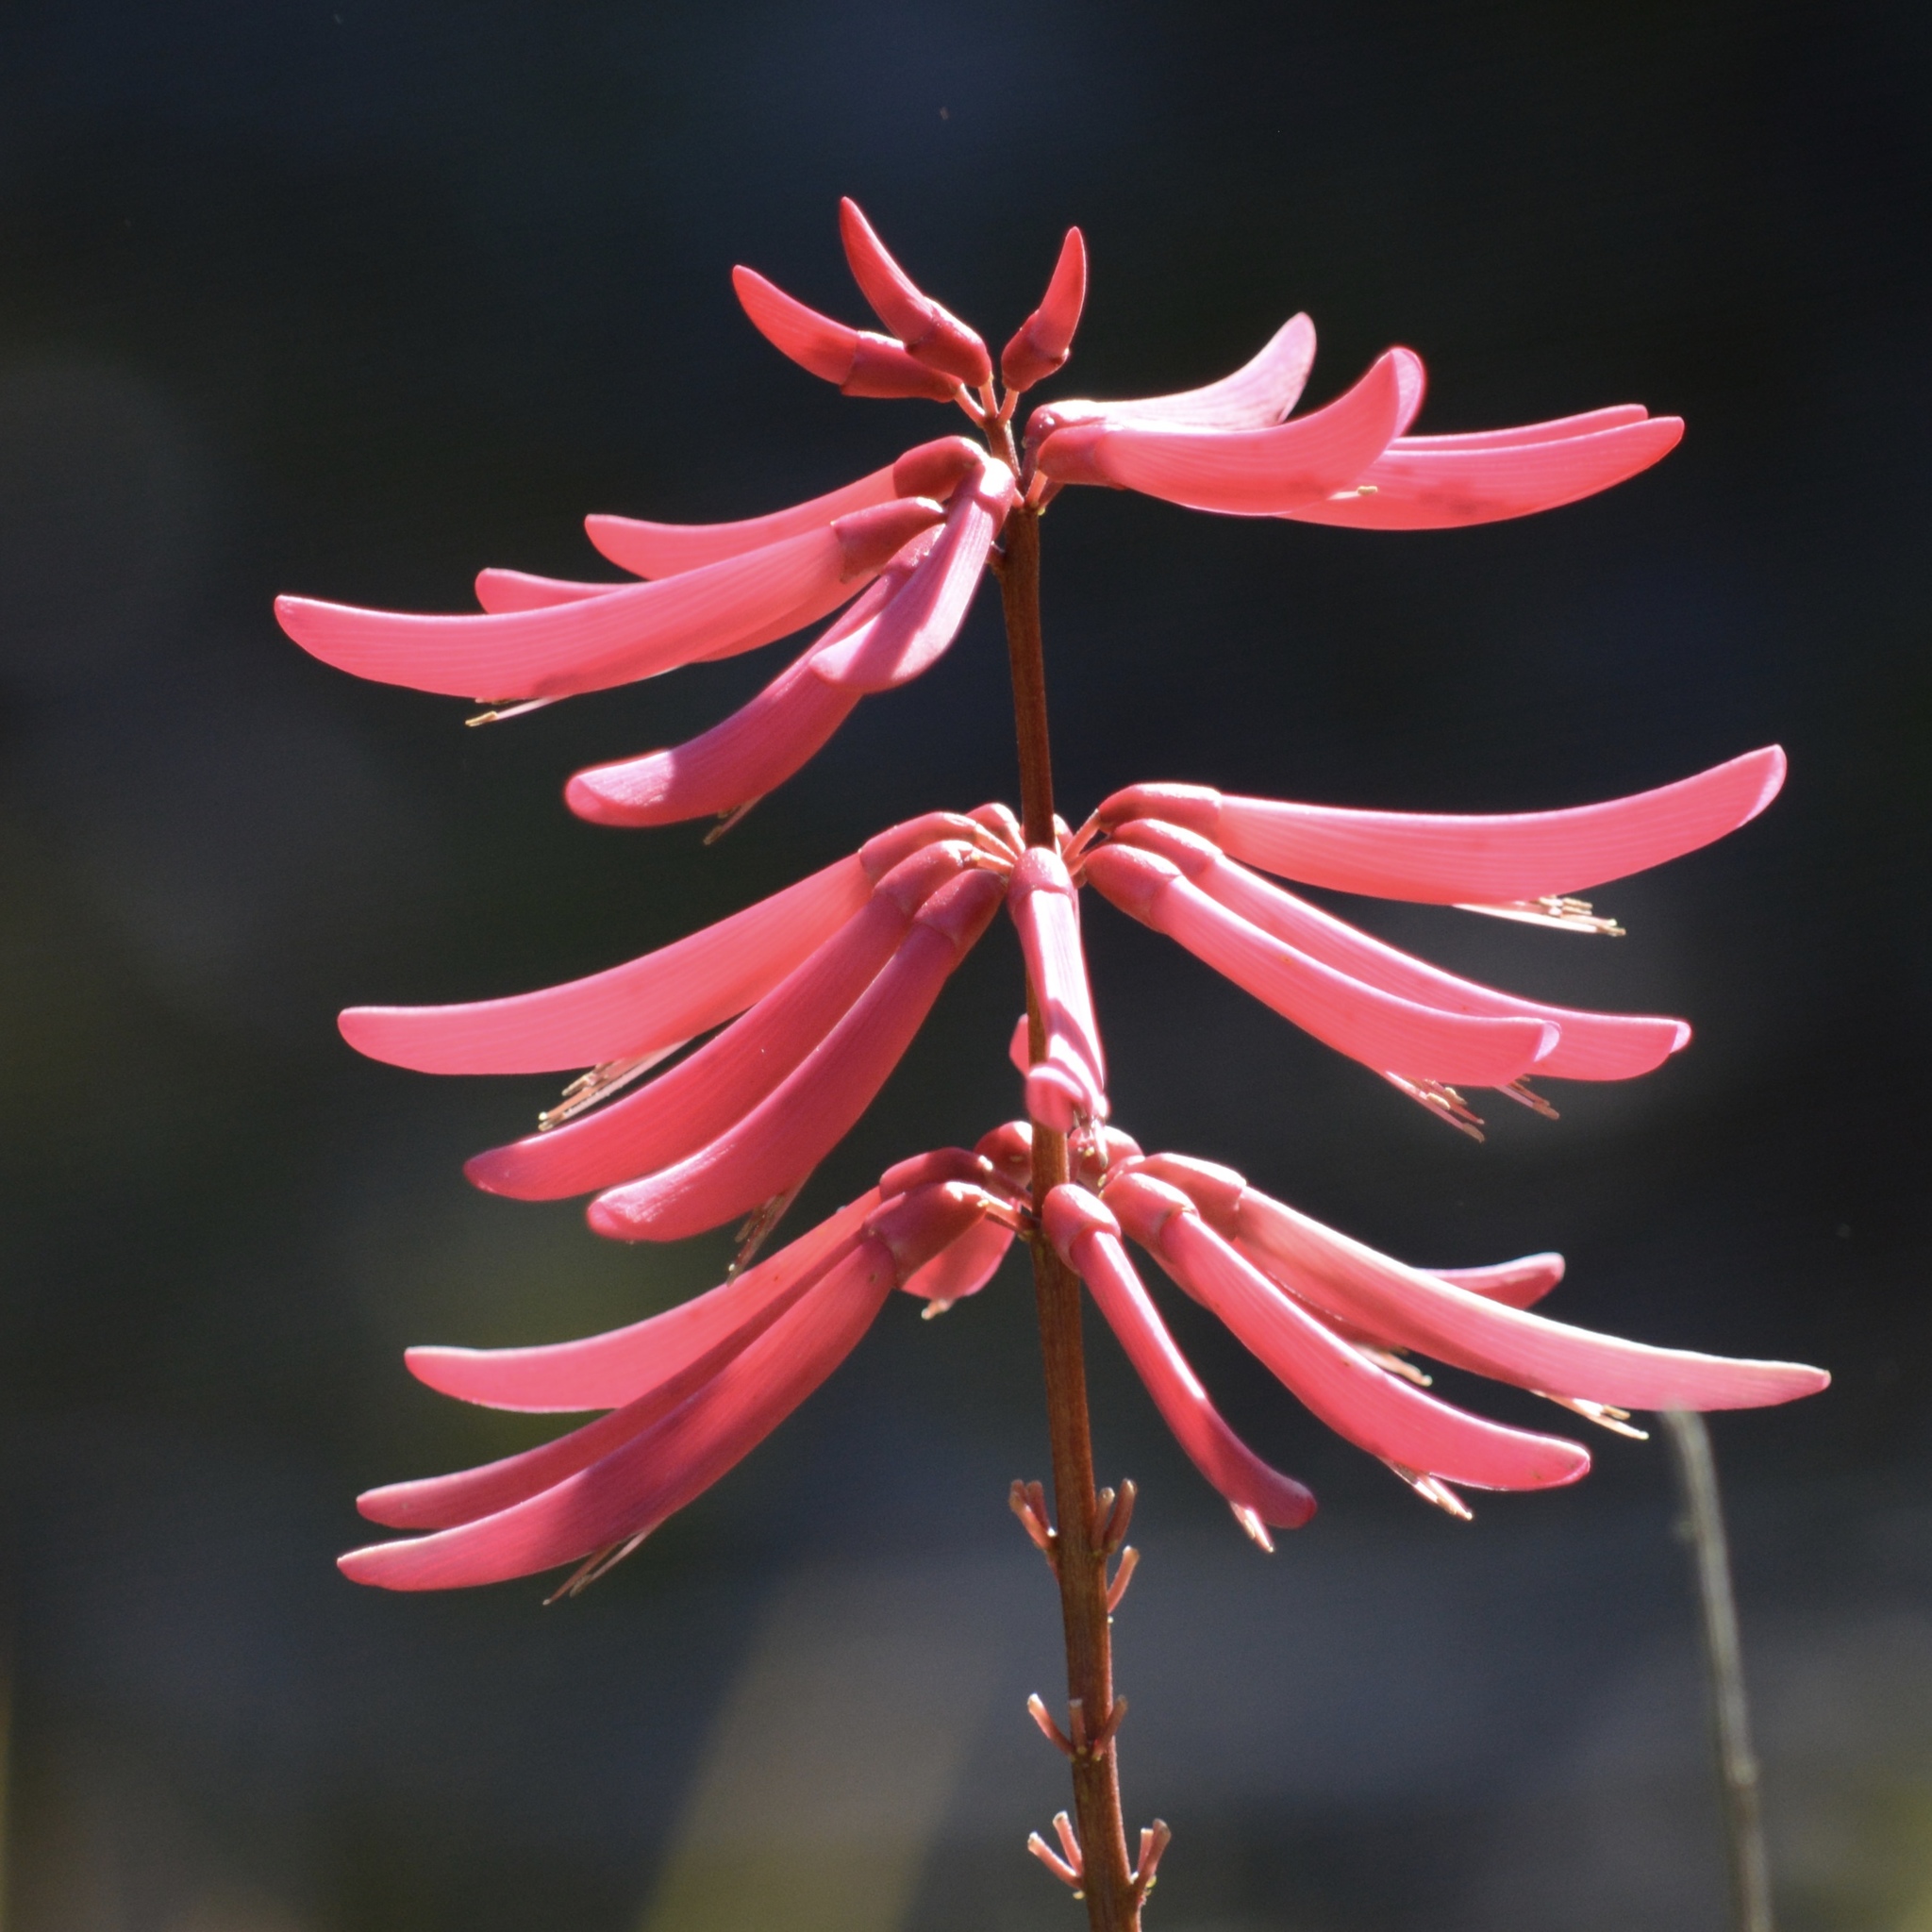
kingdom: Plantae
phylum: Tracheophyta
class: Magnoliopsida
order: Fabales
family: Fabaceae
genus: Erythrina
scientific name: Erythrina herbacea
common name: Coral-bean
